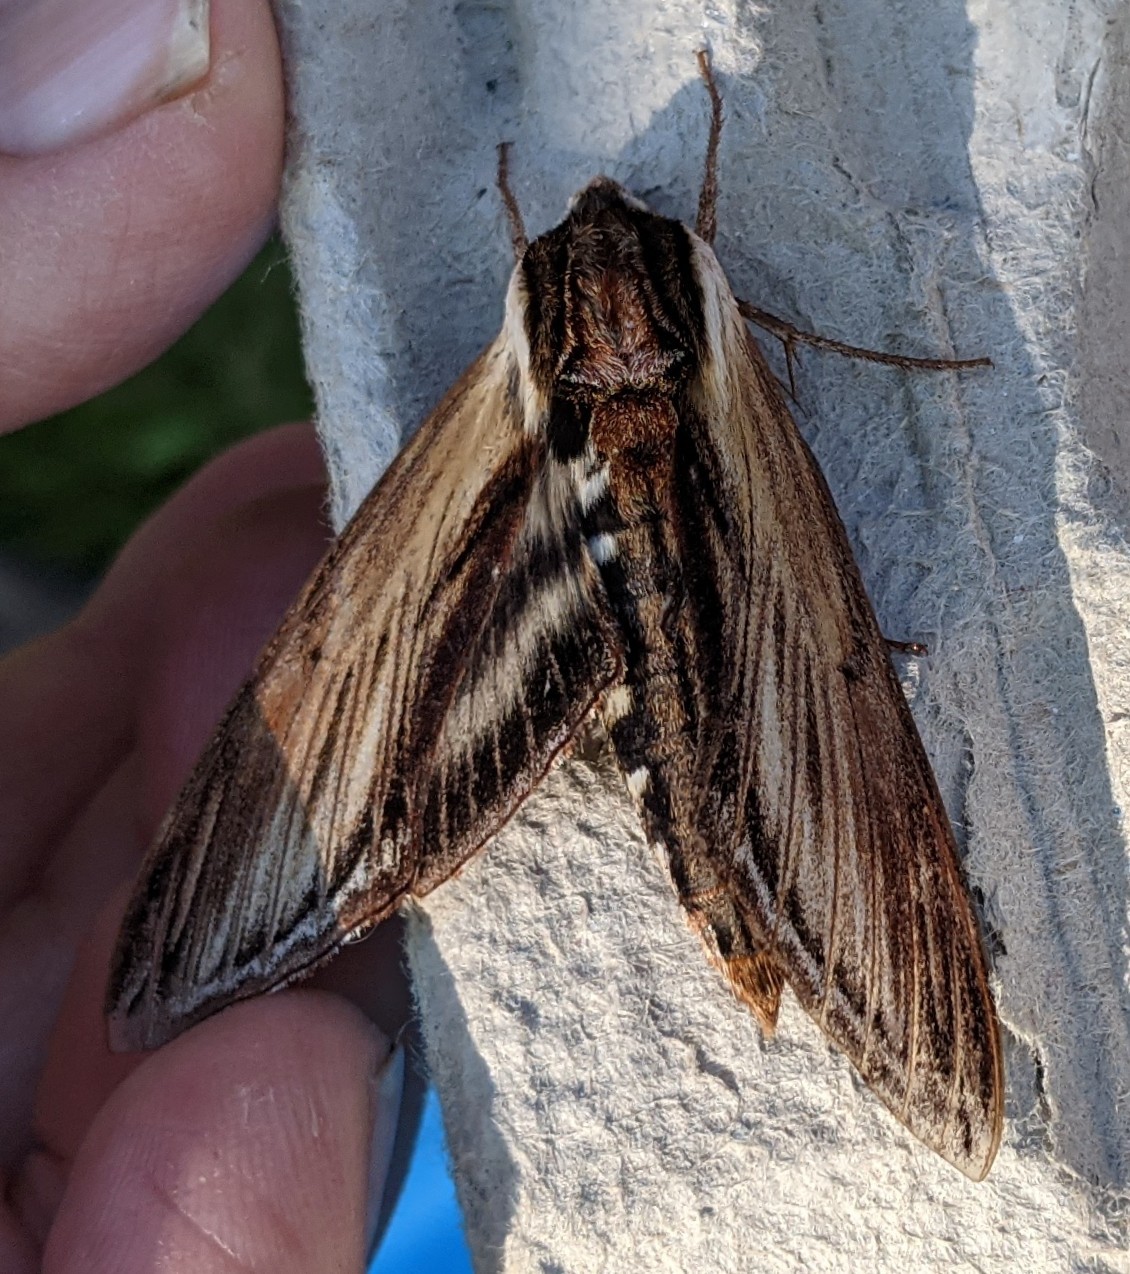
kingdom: Animalia
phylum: Arthropoda
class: Insecta
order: Lepidoptera
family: Sphingidae
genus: Sphinx
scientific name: Sphinx kalmiae
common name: Laurel sphinx
